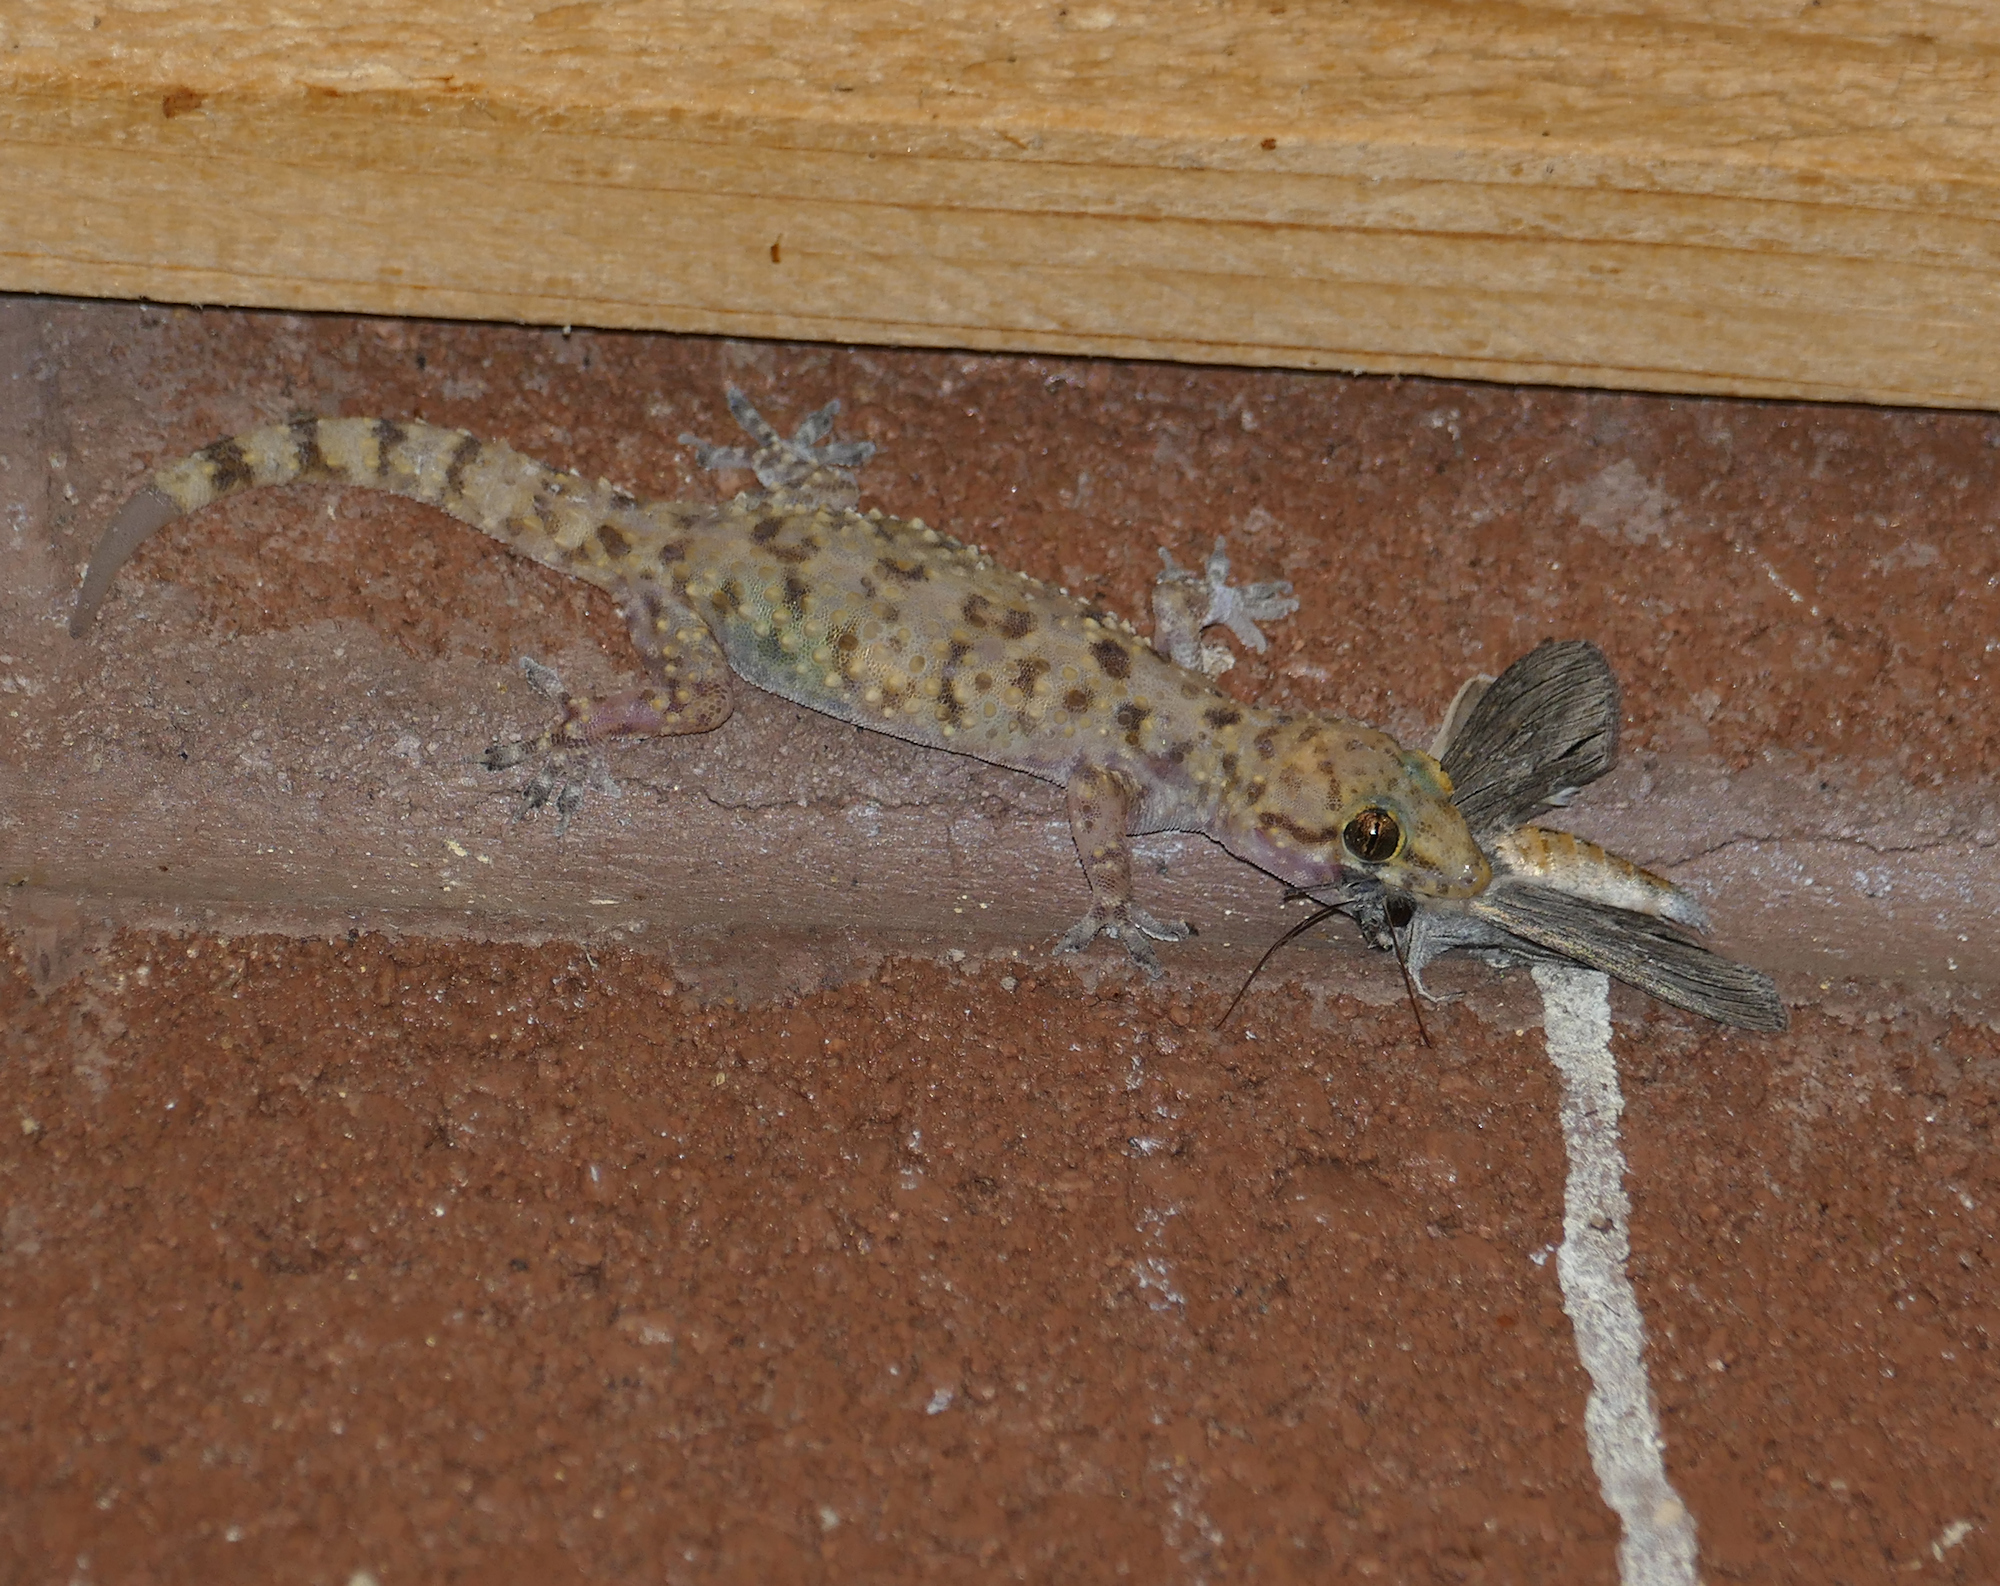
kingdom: Animalia
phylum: Chordata
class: Squamata
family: Gekkonidae
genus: Hemidactylus
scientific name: Hemidactylus turcicus
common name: Turkish gecko
